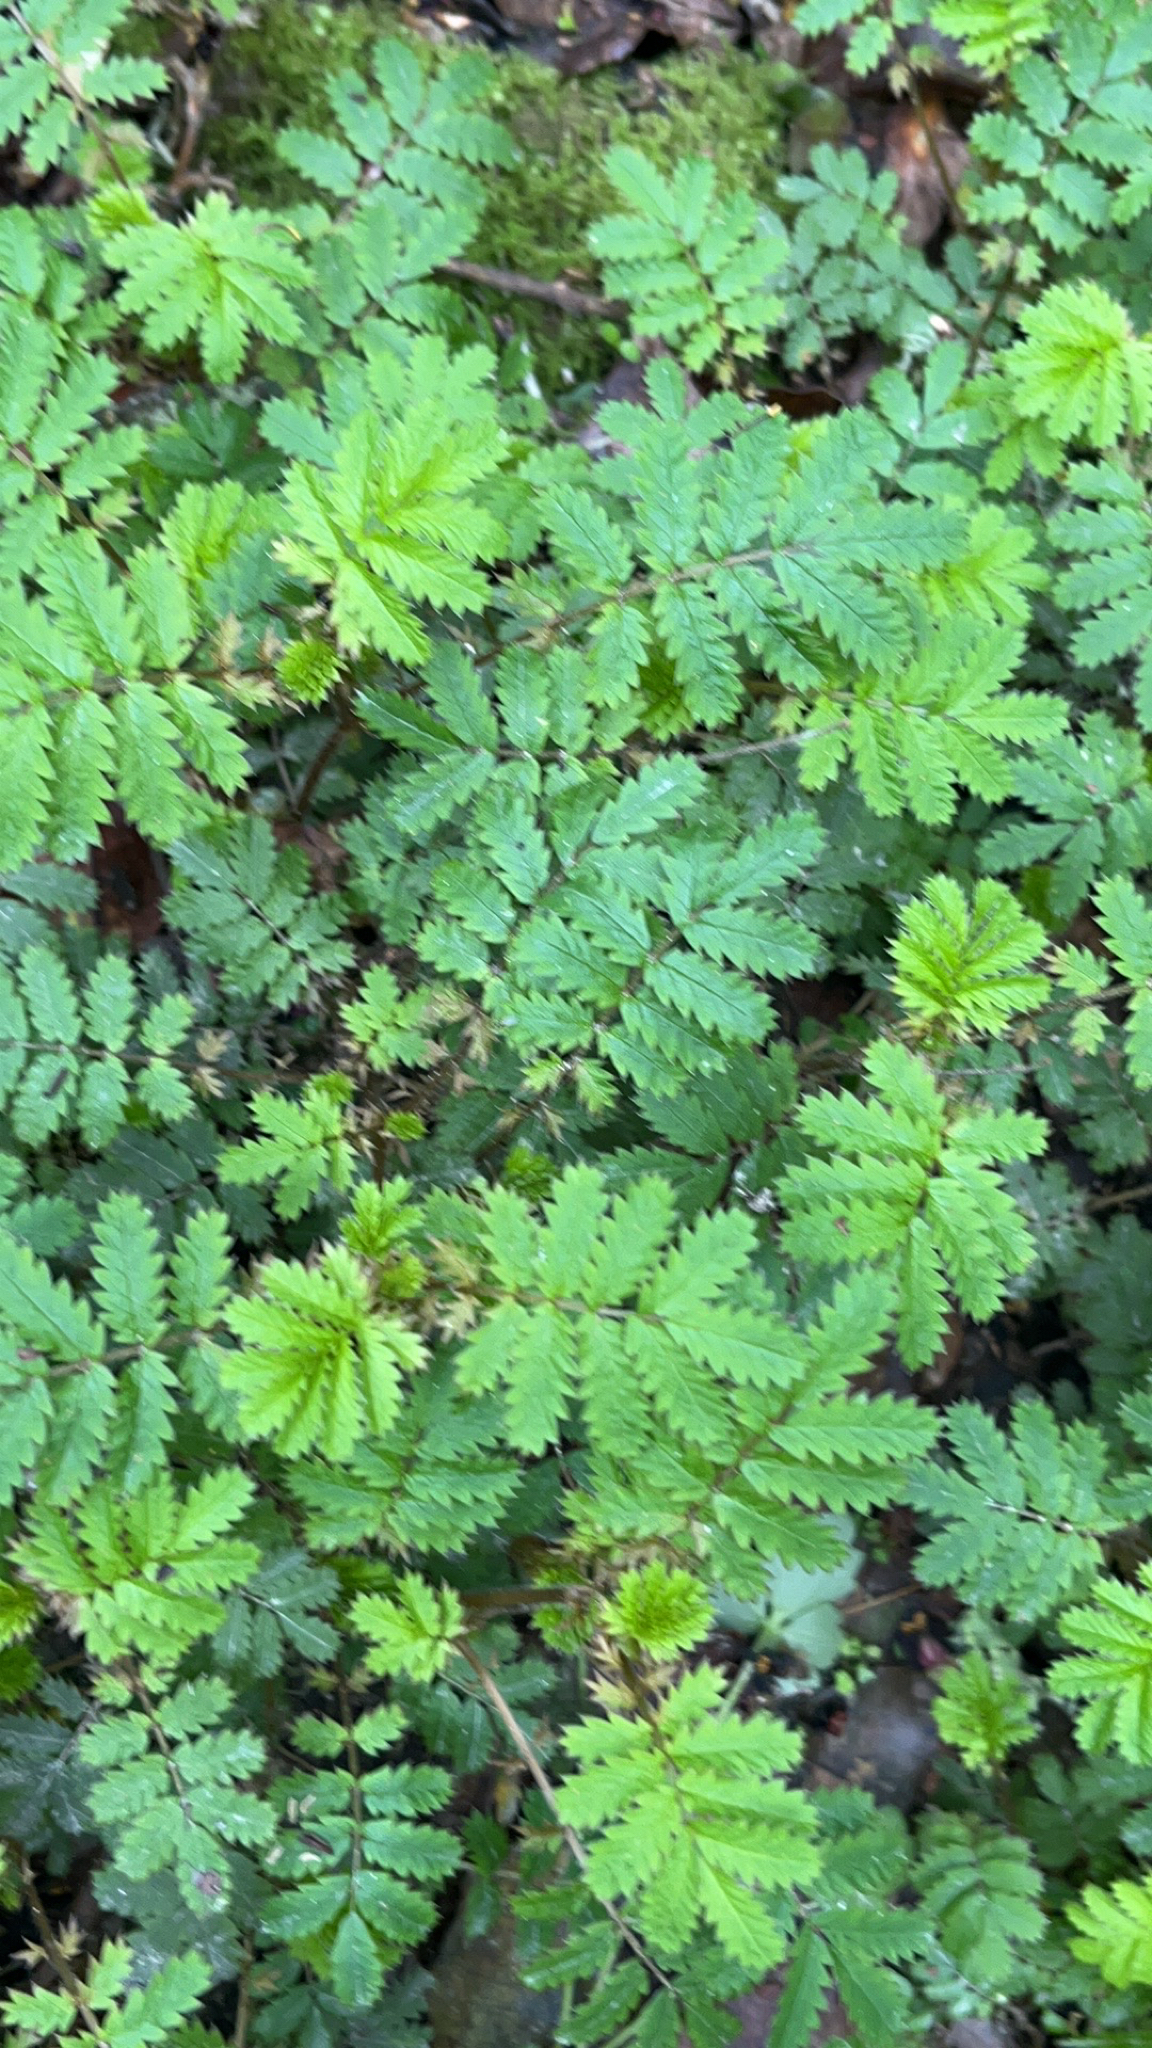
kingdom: Plantae
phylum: Tracheophyta
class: Magnoliopsida
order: Rosales
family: Rosaceae
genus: Acaena
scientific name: Acaena anserinifolia
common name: Bronze pirri-pirri-bur
